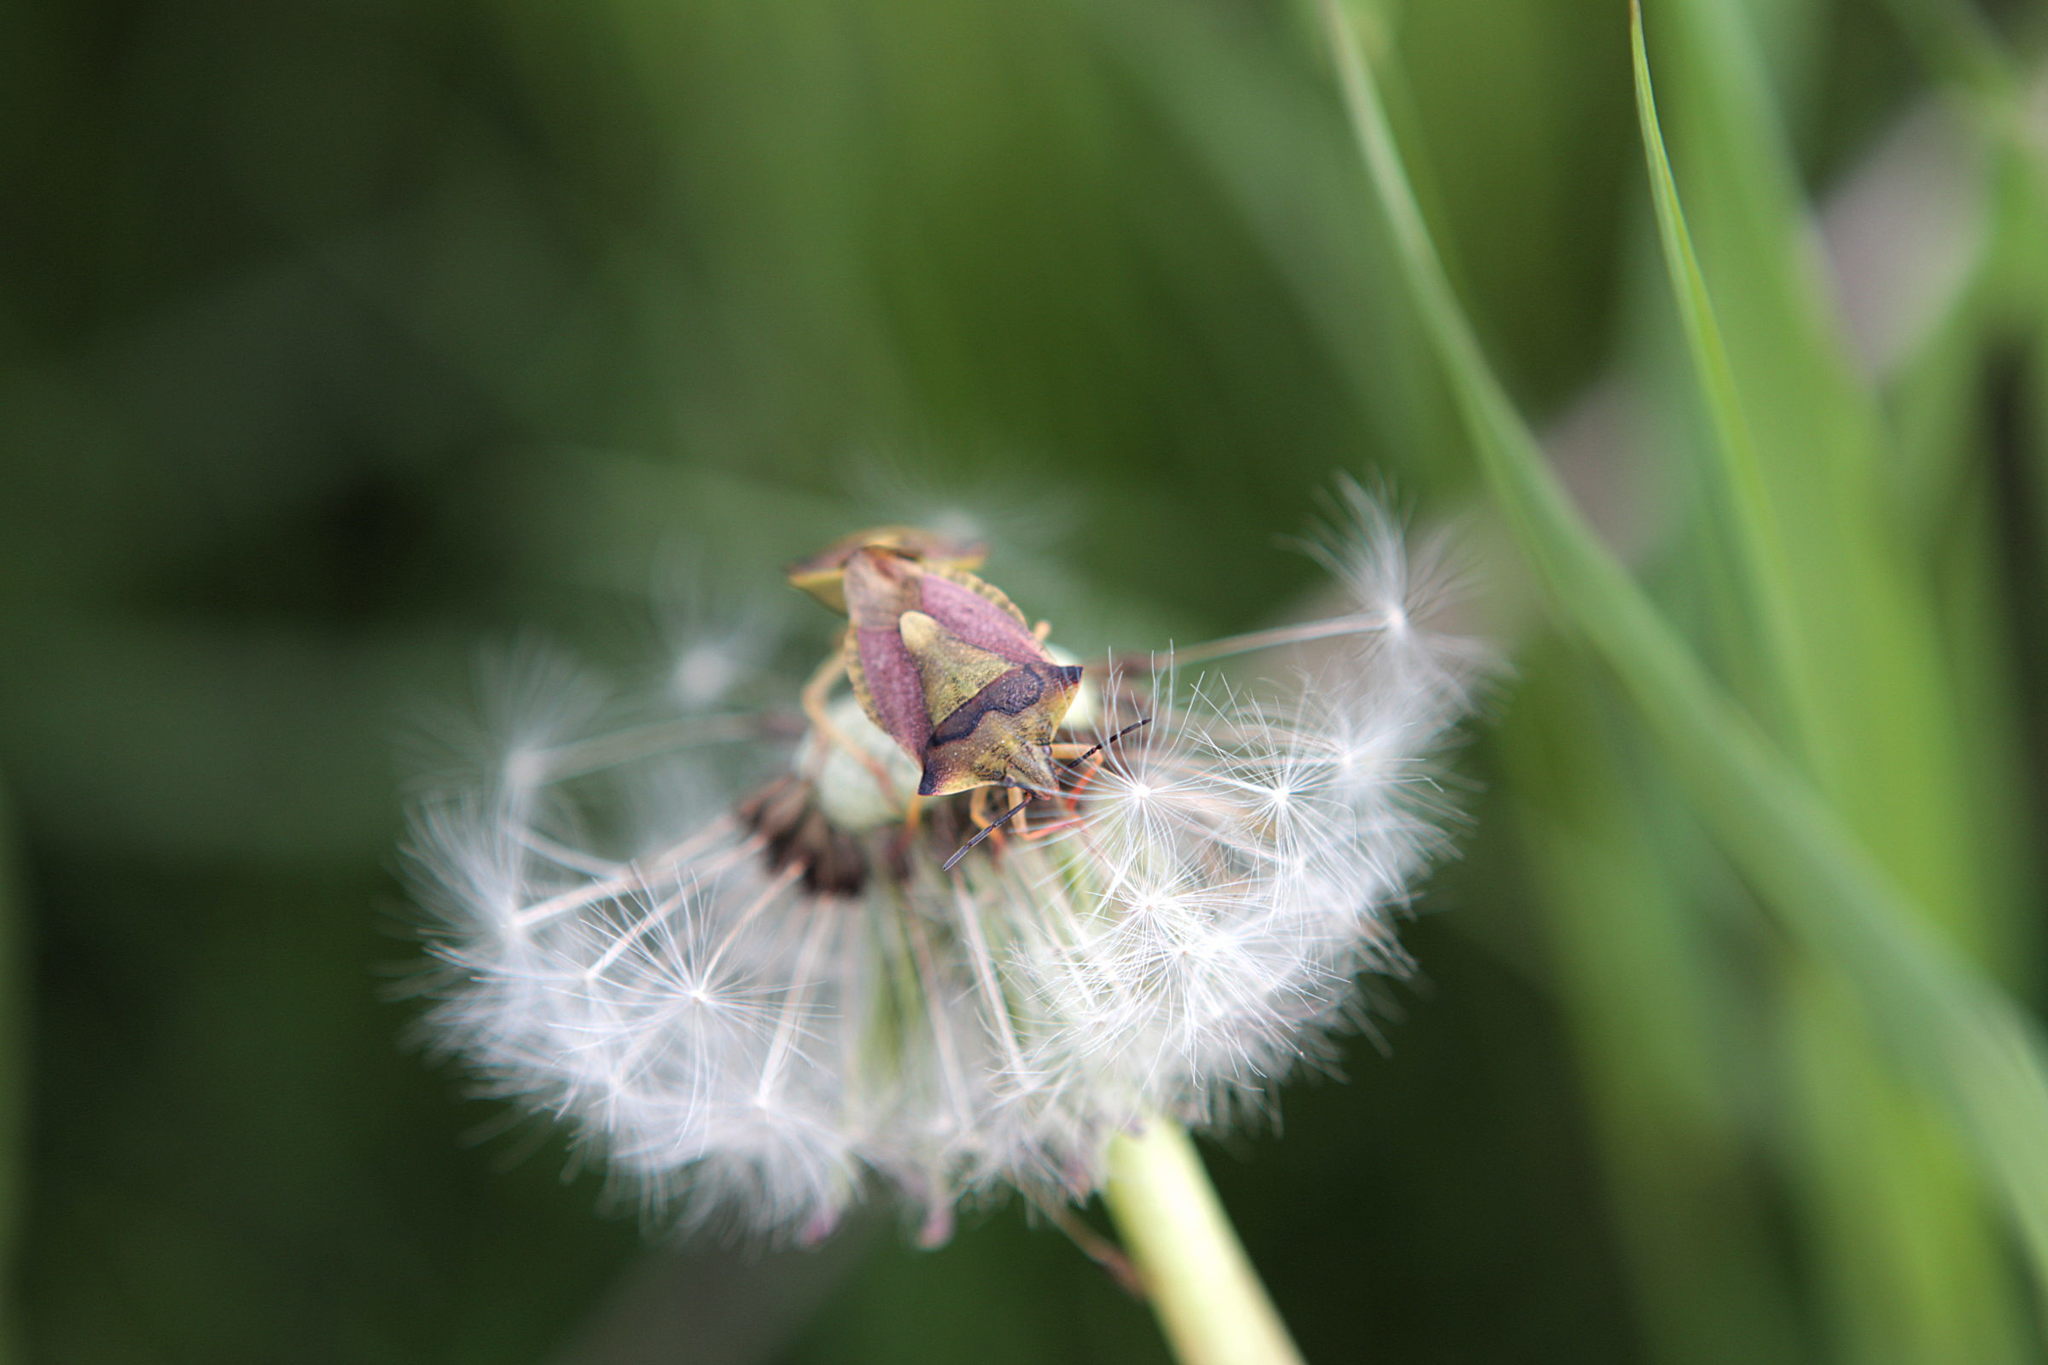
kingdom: Animalia
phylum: Arthropoda
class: Insecta
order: Hemiptera
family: Pentatomidae
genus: Carpocoris
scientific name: Carpocoris fuscispinus
